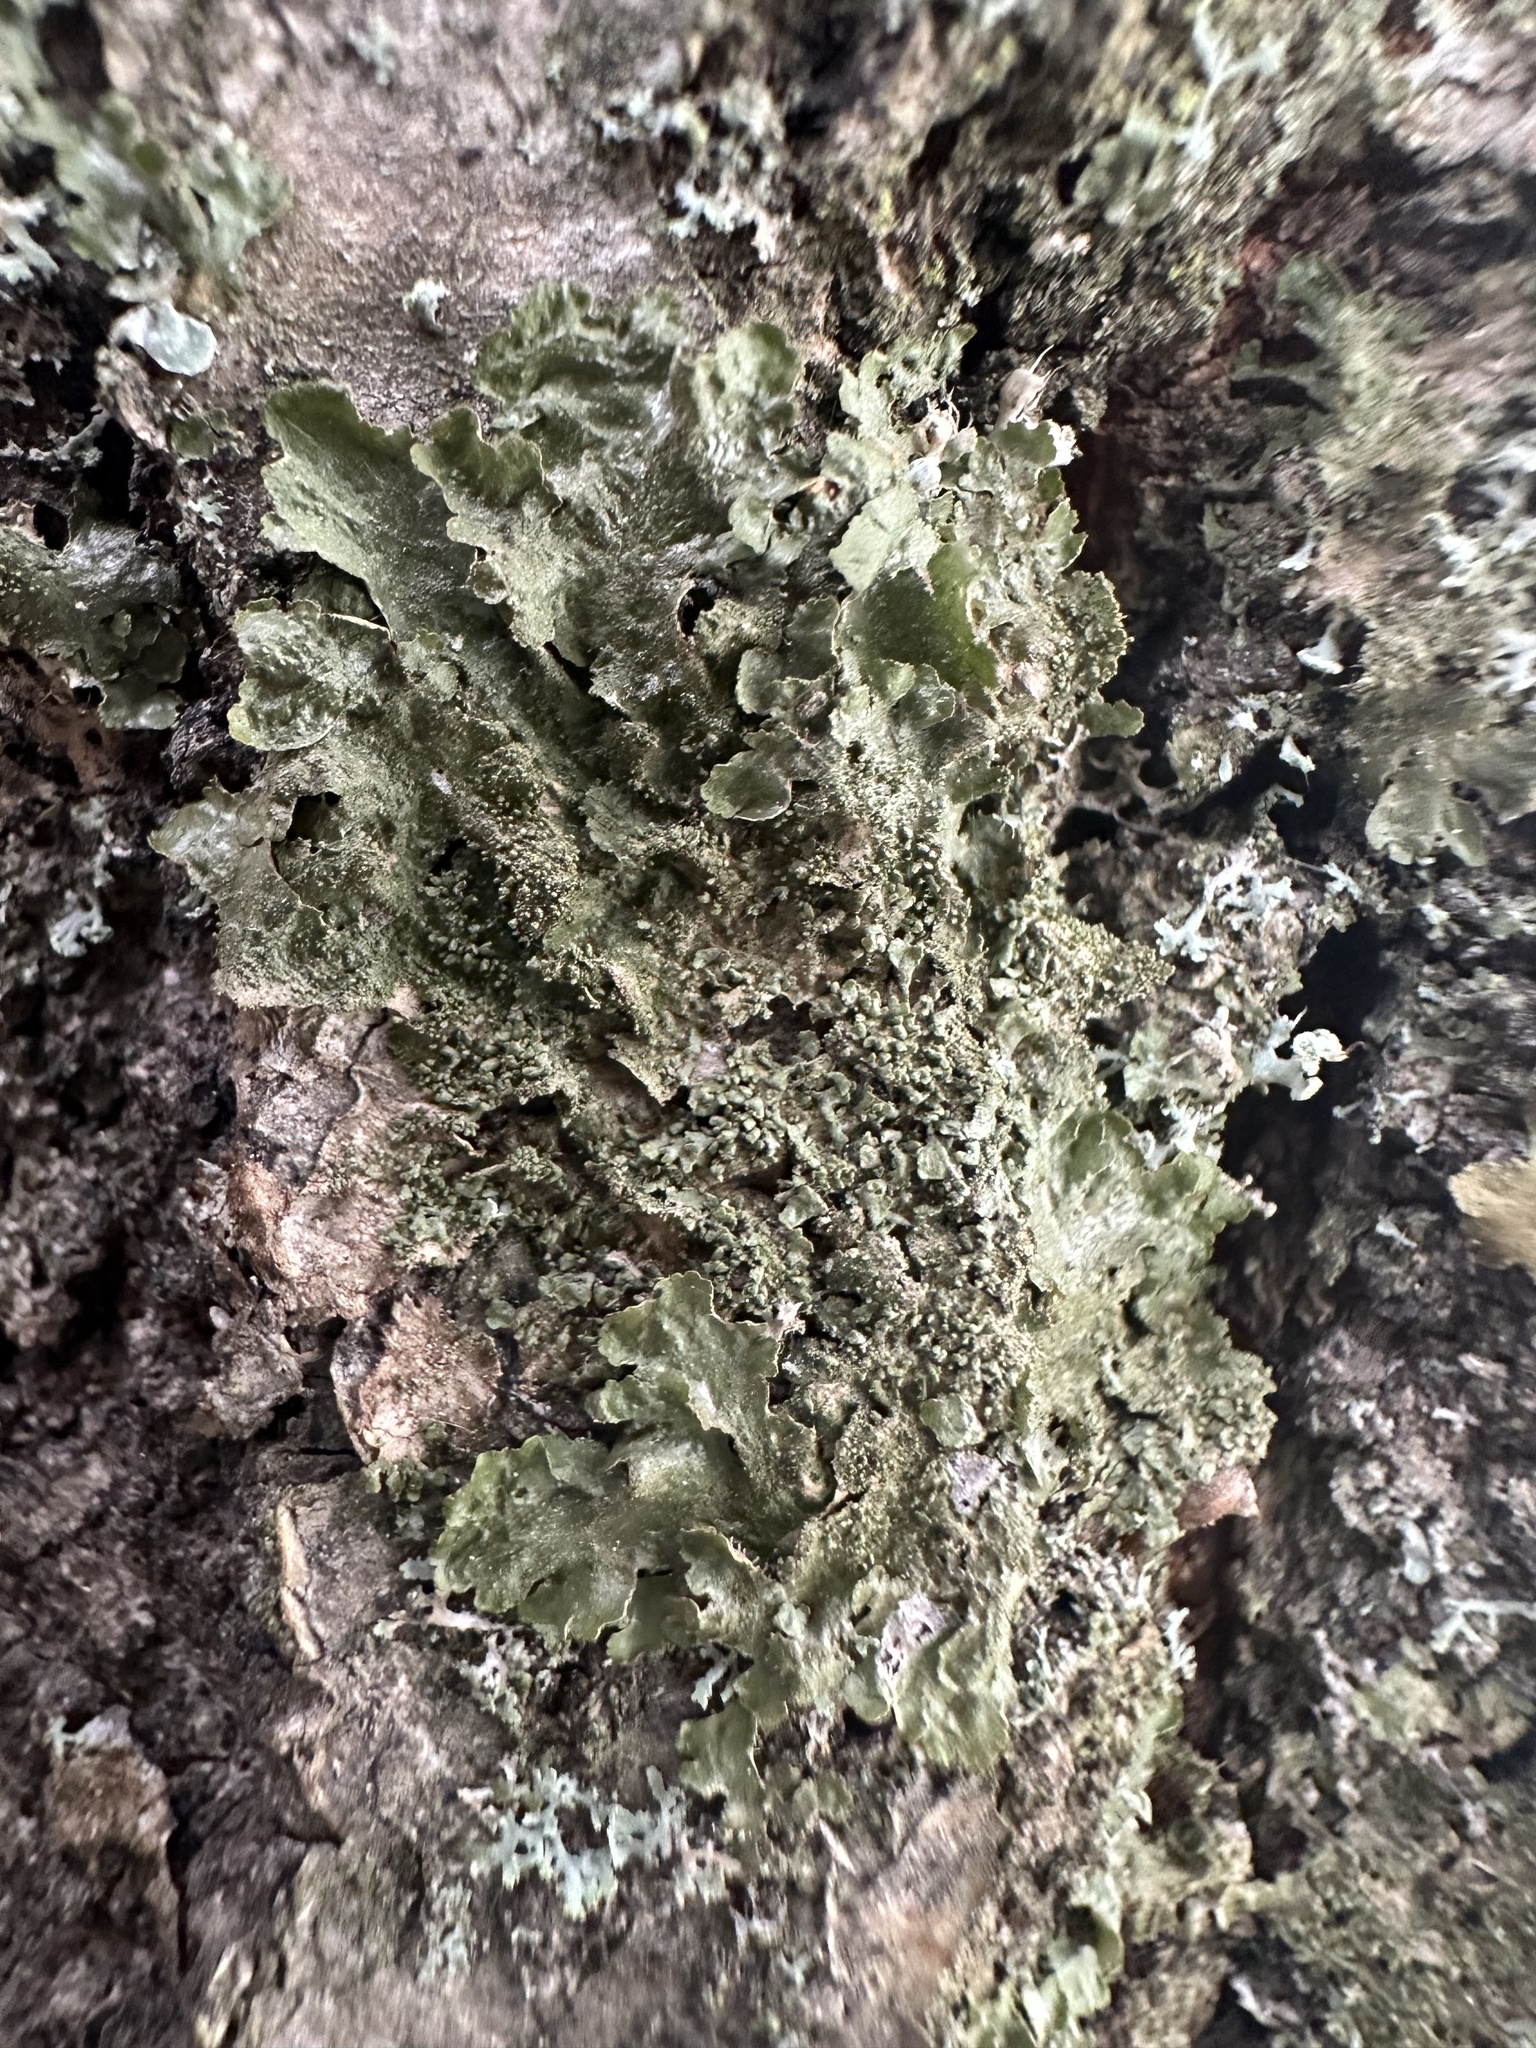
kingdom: Fungi
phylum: Ascomycota
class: Lecanoromycetes
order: Lecanorales
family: Parmeliaceae
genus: Melanohalea
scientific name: Melanohalea exasperatula
